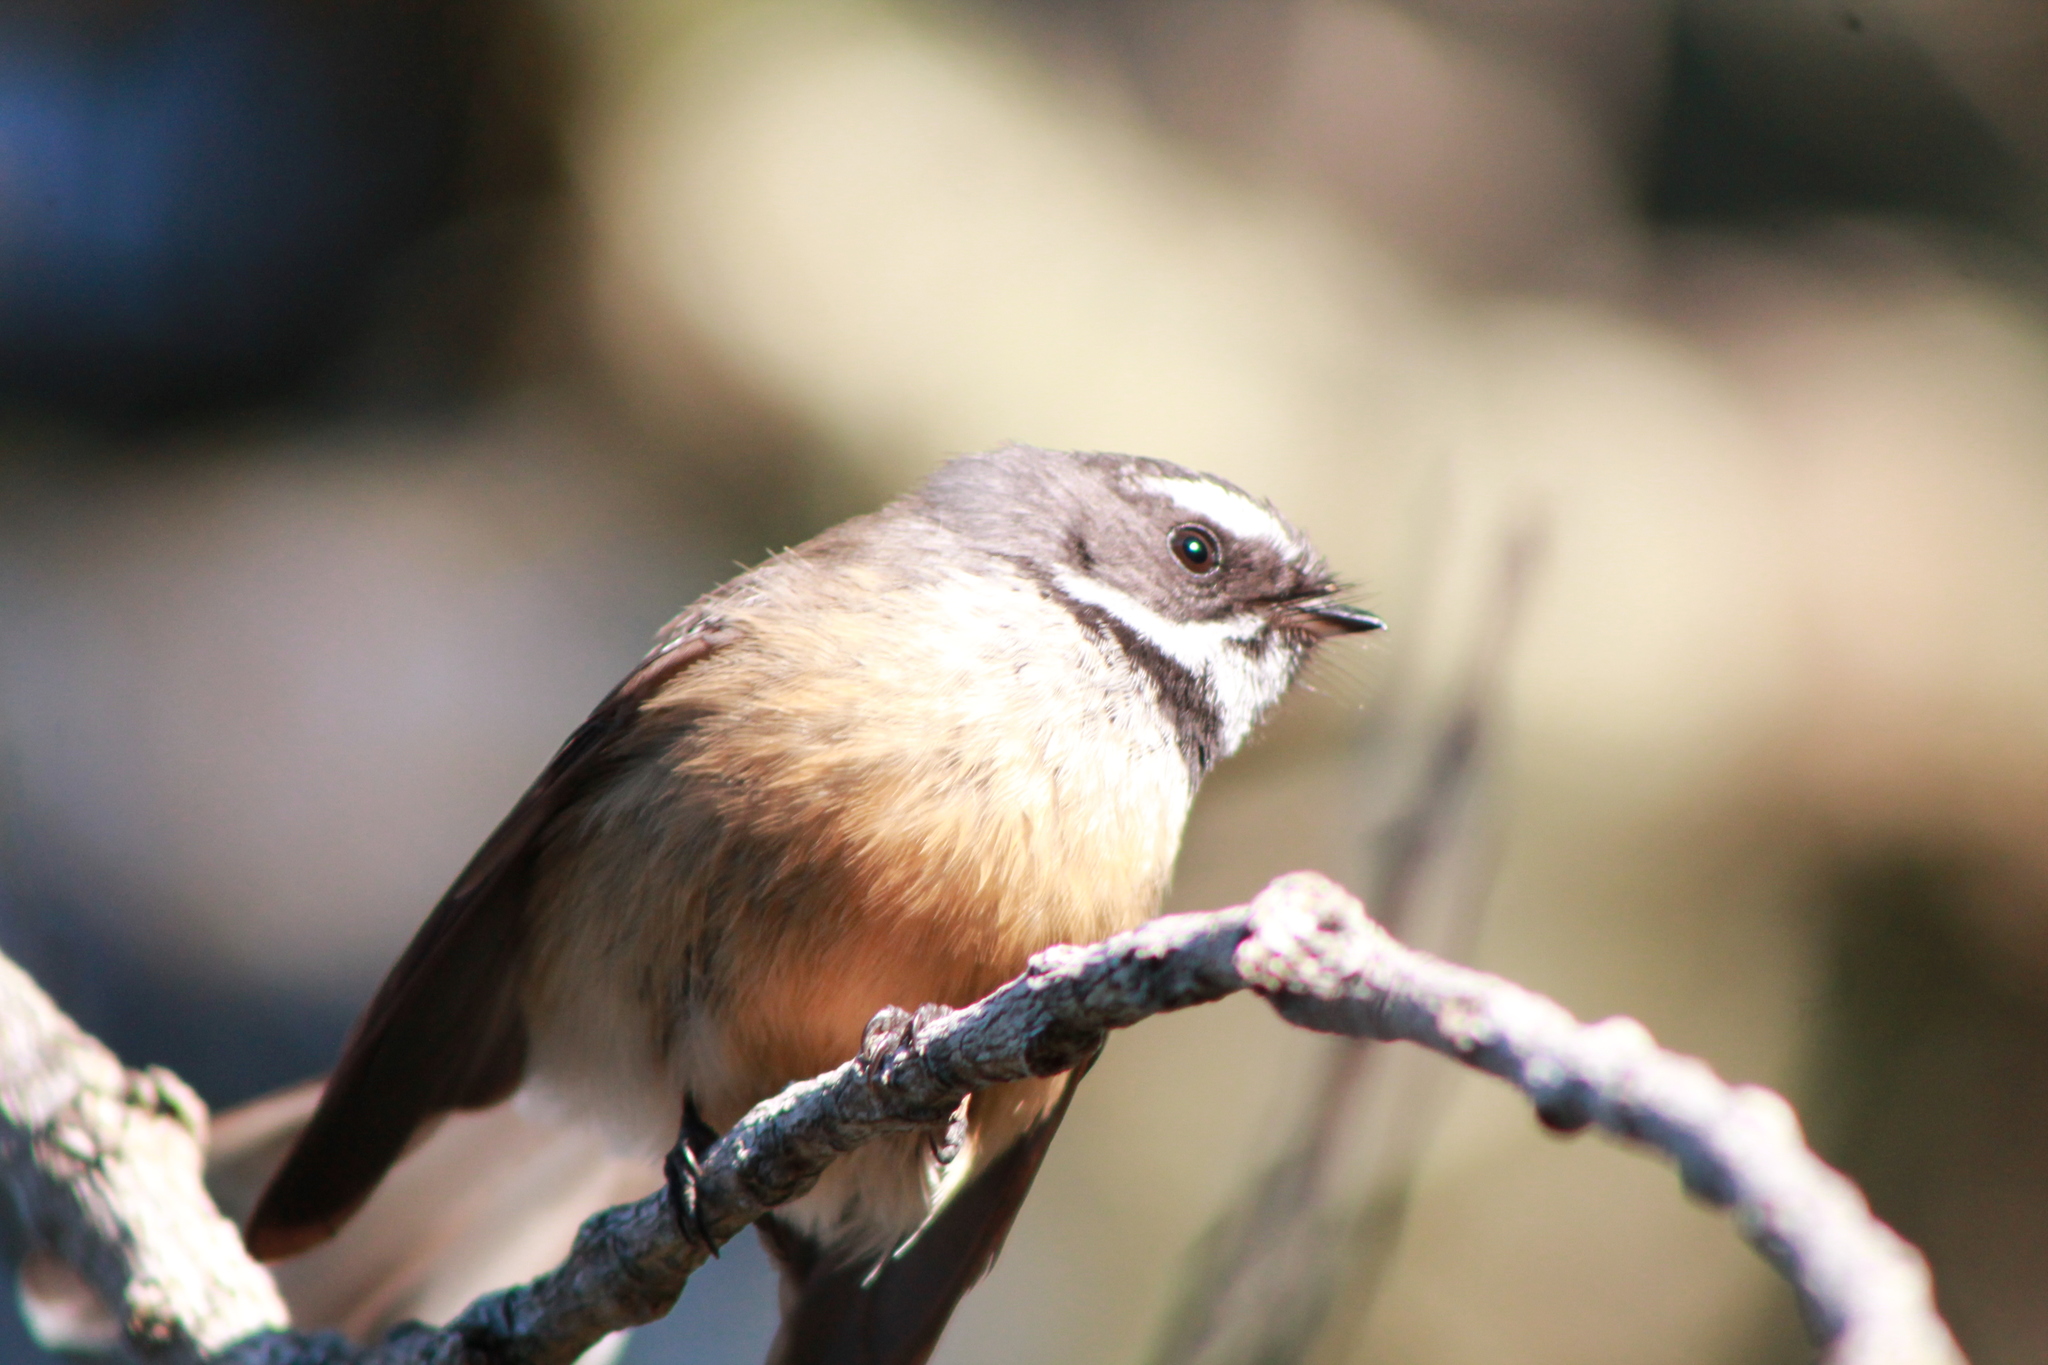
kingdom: Animalia
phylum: Chordata
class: Aves
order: Passeriformes
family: Rhipiduridae
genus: Rhipidura
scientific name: Rhipidura fuliginosa
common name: New zealand fantail
